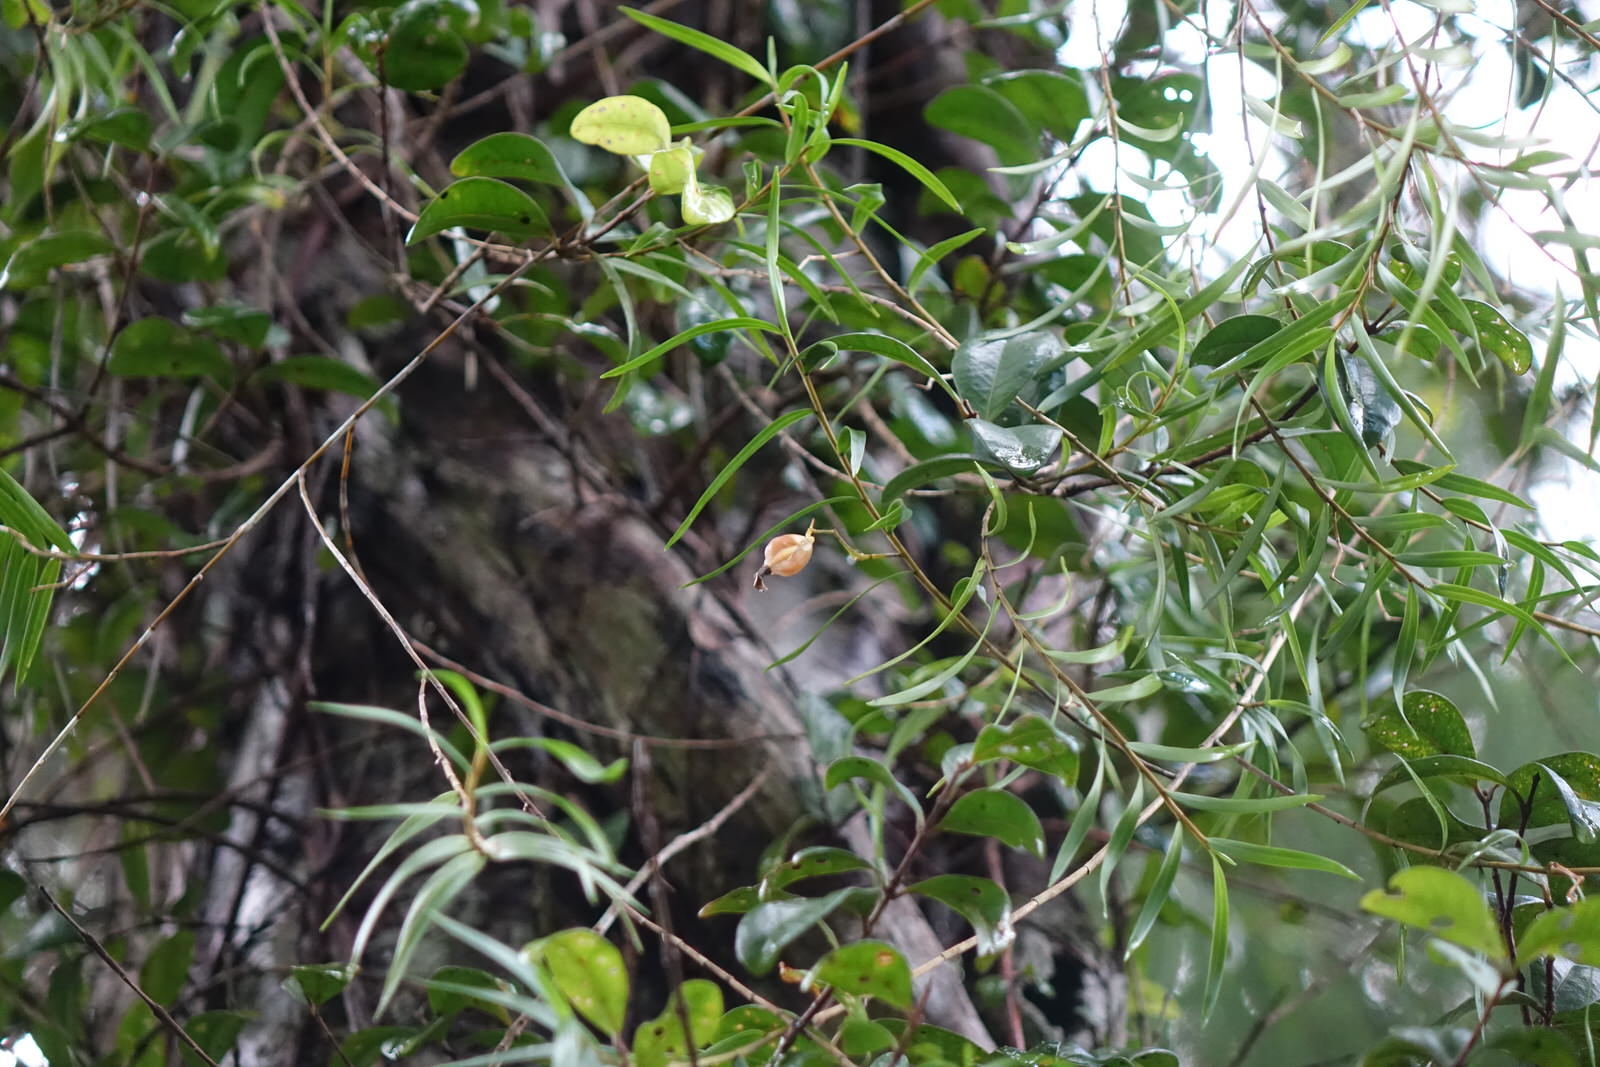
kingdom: Plantae
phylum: Tracheophyta
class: Liliopsida
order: Asparagales
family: Orchidaceae
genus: Dendrobium
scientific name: Dendrobium cunninghamii
